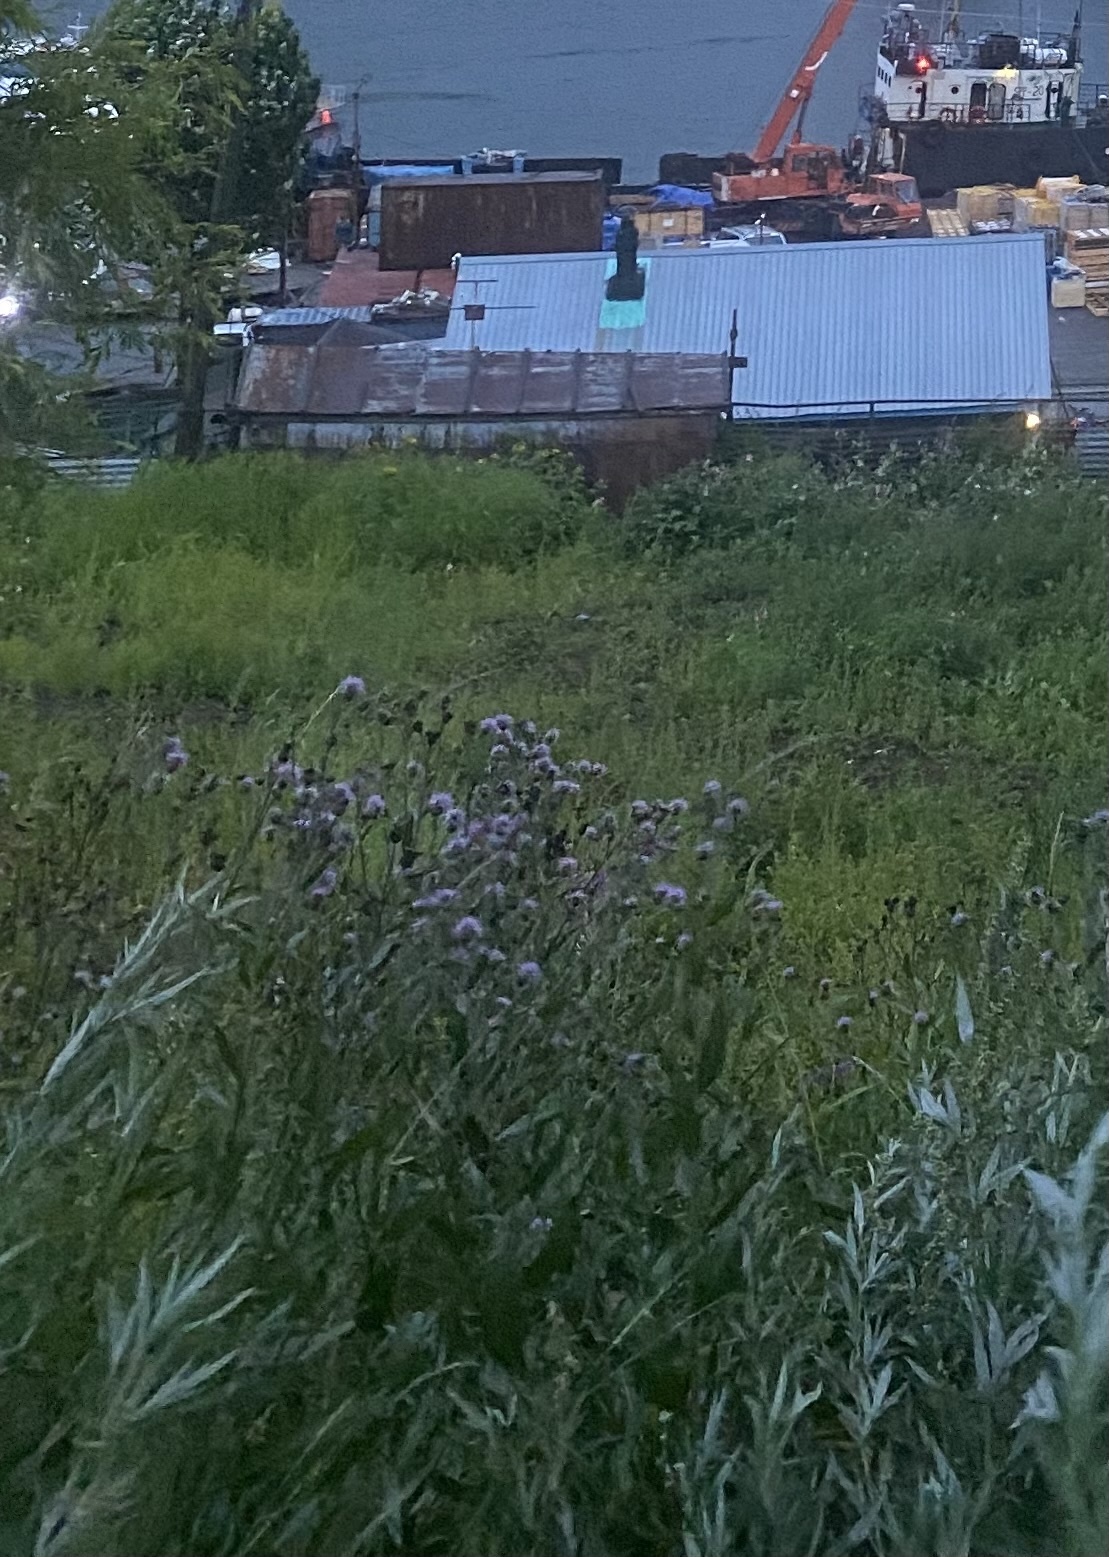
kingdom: Plantae
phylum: Tracheophyta
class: Magnoliopsida
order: Asterales
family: Asteraceae
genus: Cirsium
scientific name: Cirsium arvense
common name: Creeping thistle
